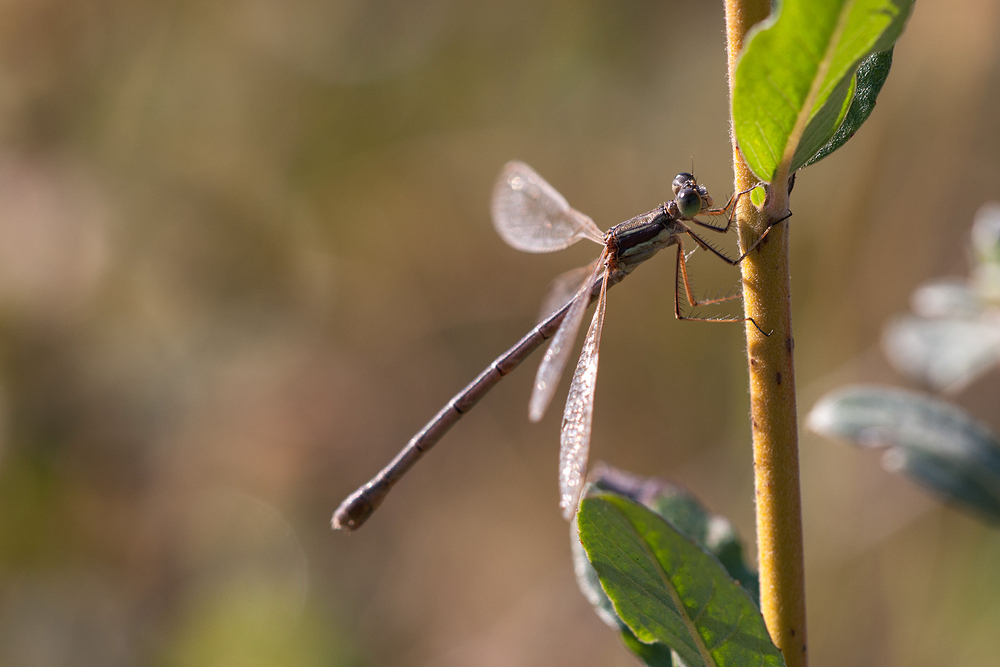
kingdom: Animalia
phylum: Arthropoda
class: Insecta
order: Odonata
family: Lestidae
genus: Lestes
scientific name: Lestes barbarus
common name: Migrant spreadwing
